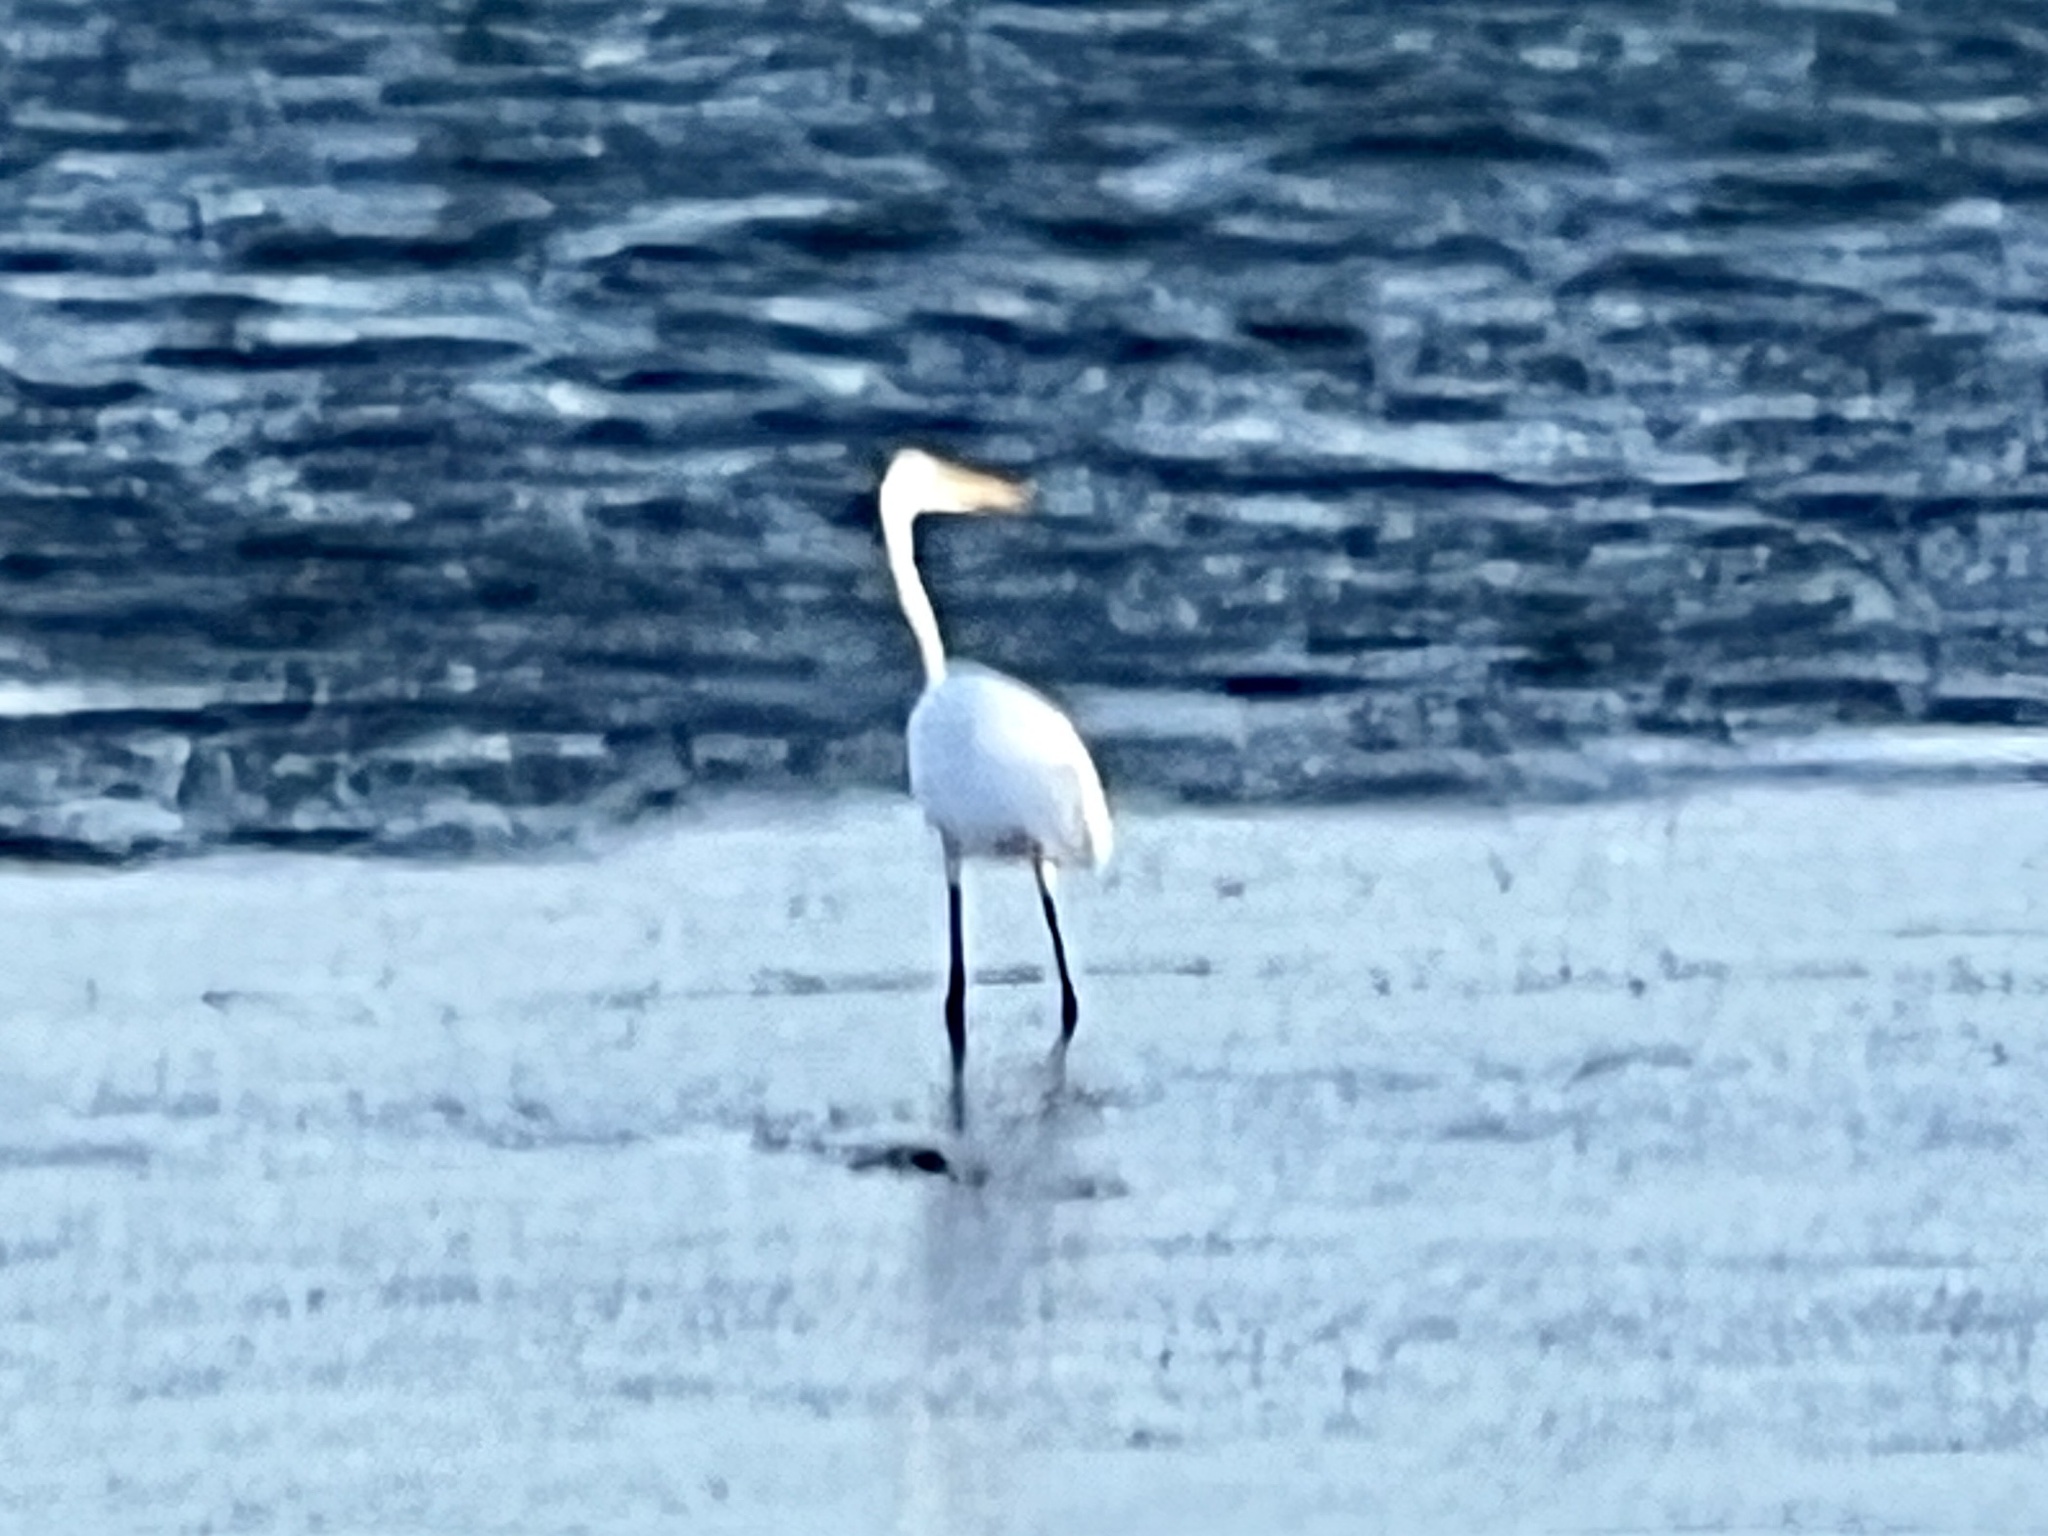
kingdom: Animalia
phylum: Chordata
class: Aves
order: Pelecaniformes
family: Ardeidae
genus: Ardea
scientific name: Ardea alba
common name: Great egret
